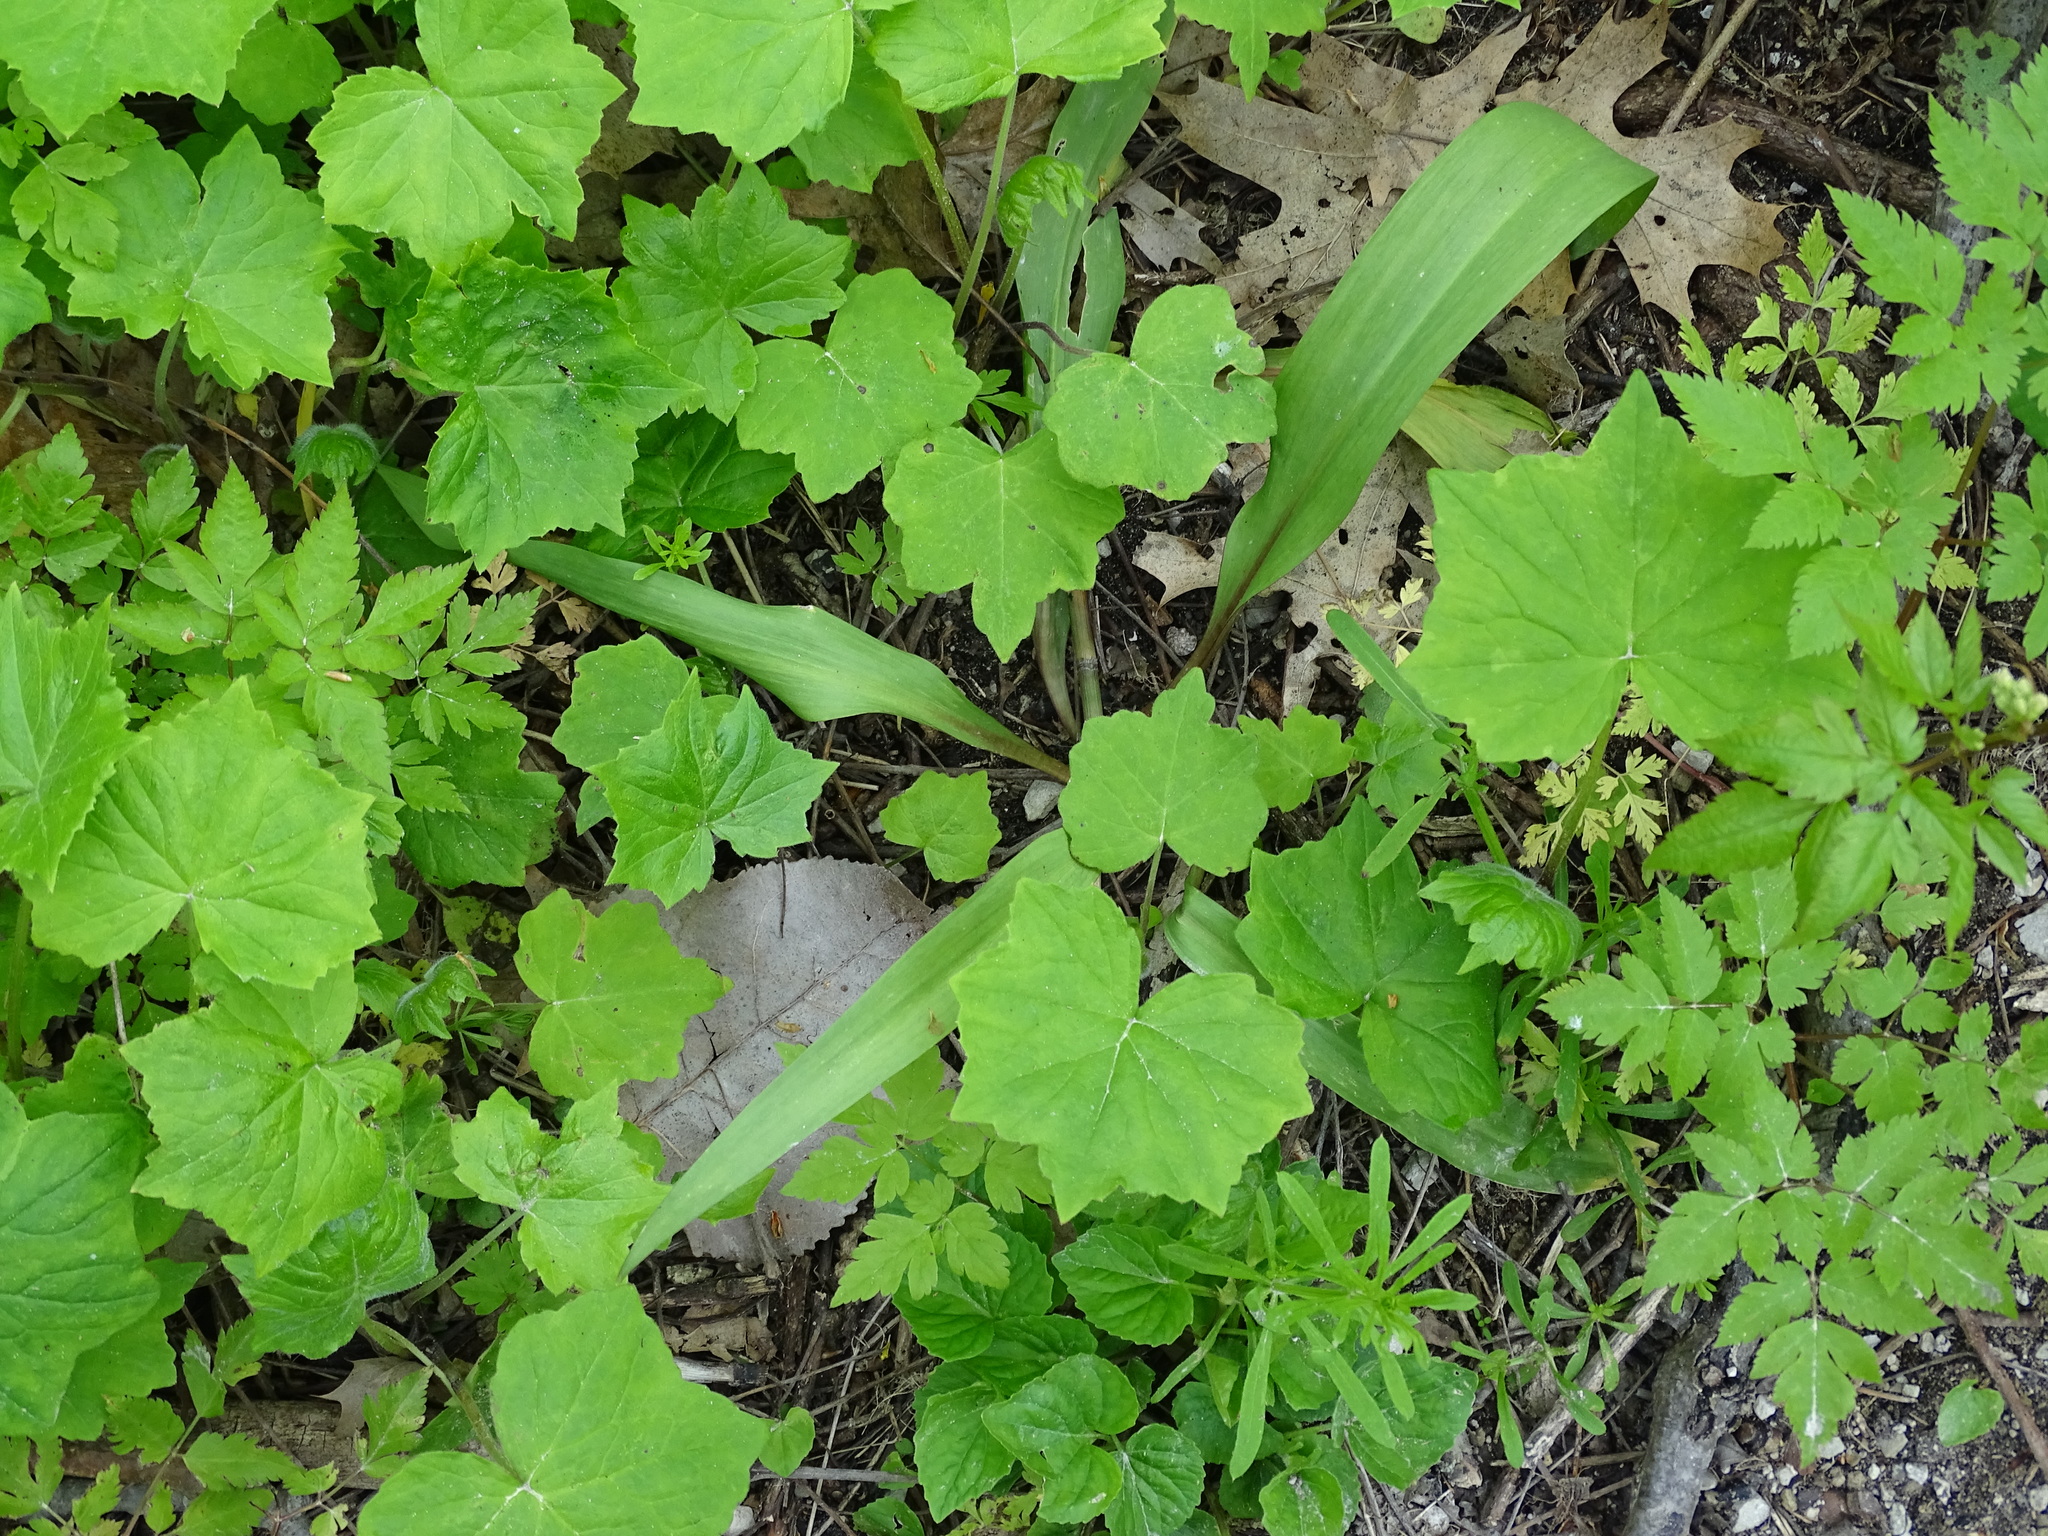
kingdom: Plantae
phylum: Tracheophyta
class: Magnoliopsida
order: Boraginales
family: Hydrophyllaceae
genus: Hydrophyllum
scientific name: Hydrophyllum canadense
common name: Canada waterleaf
